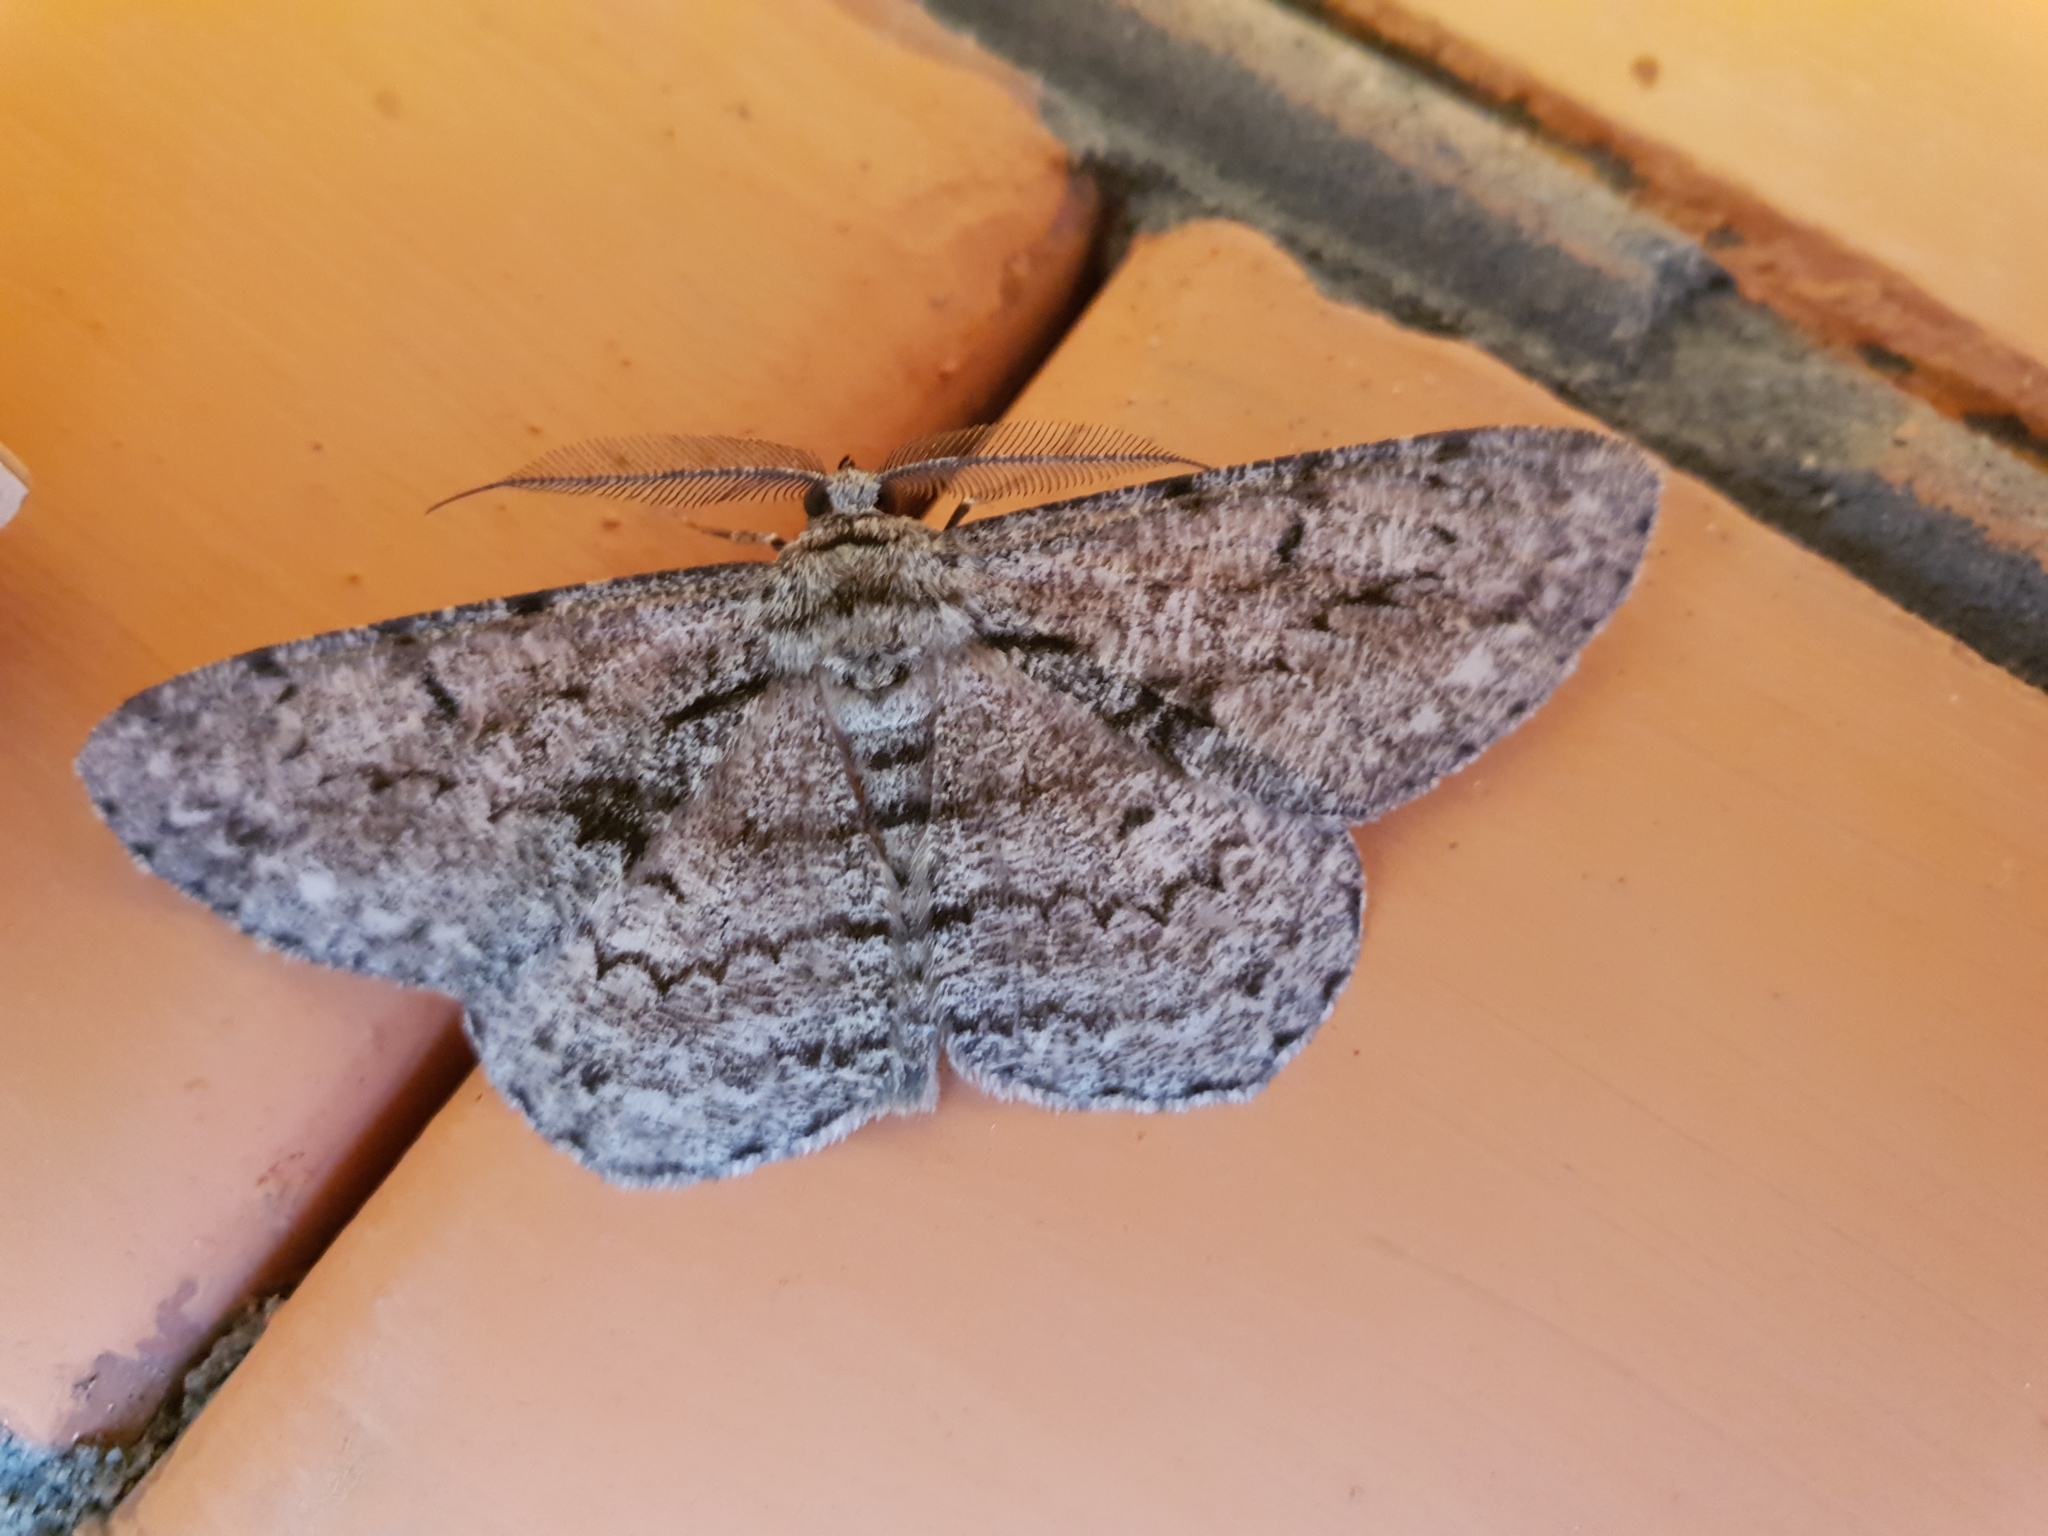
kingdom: Animalia
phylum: Arthropoda
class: Insecta
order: Lepidoptera
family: Geometridae
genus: Hypomecis
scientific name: Hypomecis roboraria
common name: Great oak beauty
